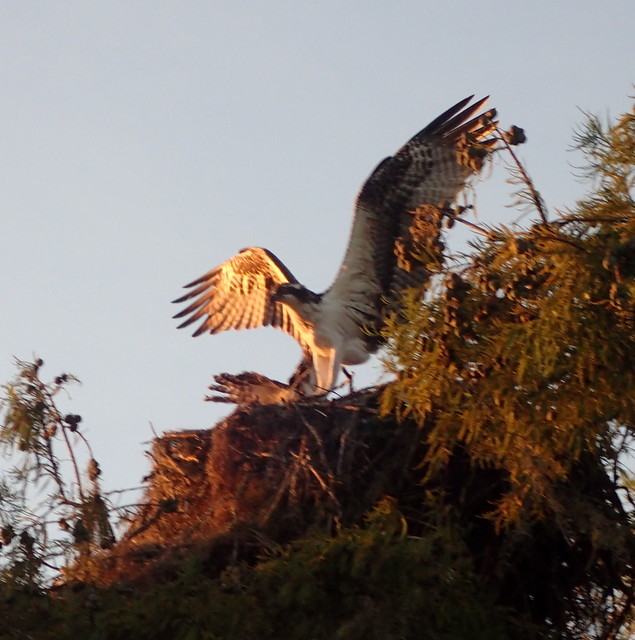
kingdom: Animalia
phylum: Chordata
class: Aves
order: Accipitriformes
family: Pandionidae
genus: Pandion
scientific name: Pandion haliaetus
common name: Osprey
